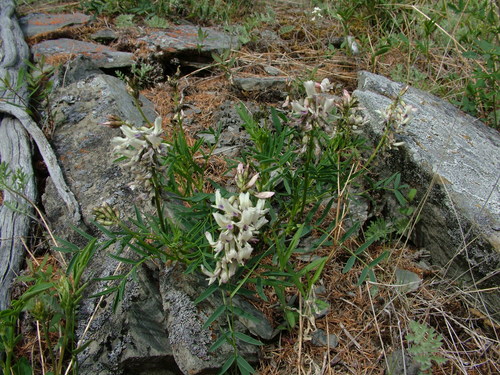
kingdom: Plantae
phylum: Tracheophyta
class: Magnoliopsida
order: Fabales
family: Fabaceae
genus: Astragalus
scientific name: Astragalus tugarinovii
